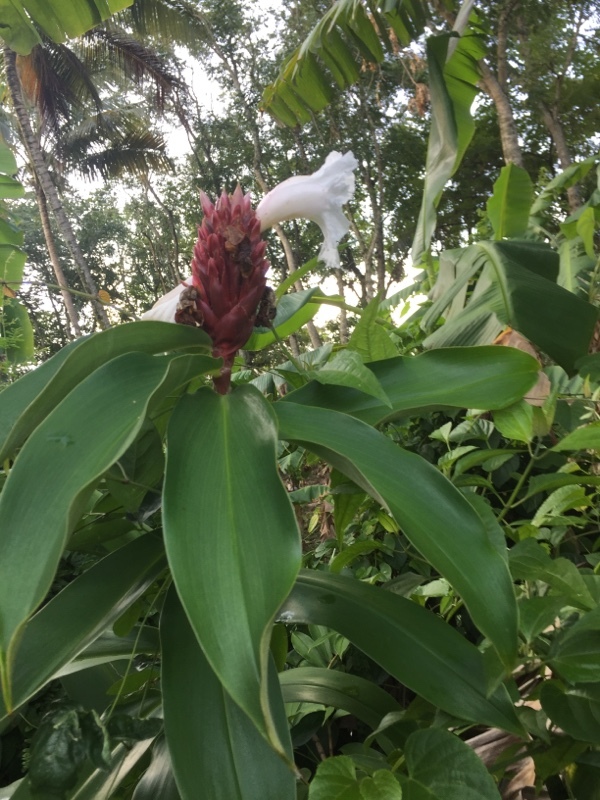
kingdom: Plantae
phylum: Tracheophyta
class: Liliopsida
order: Zingiberales
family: Costaceae
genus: Hellenia
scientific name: Hellenia speciosa
